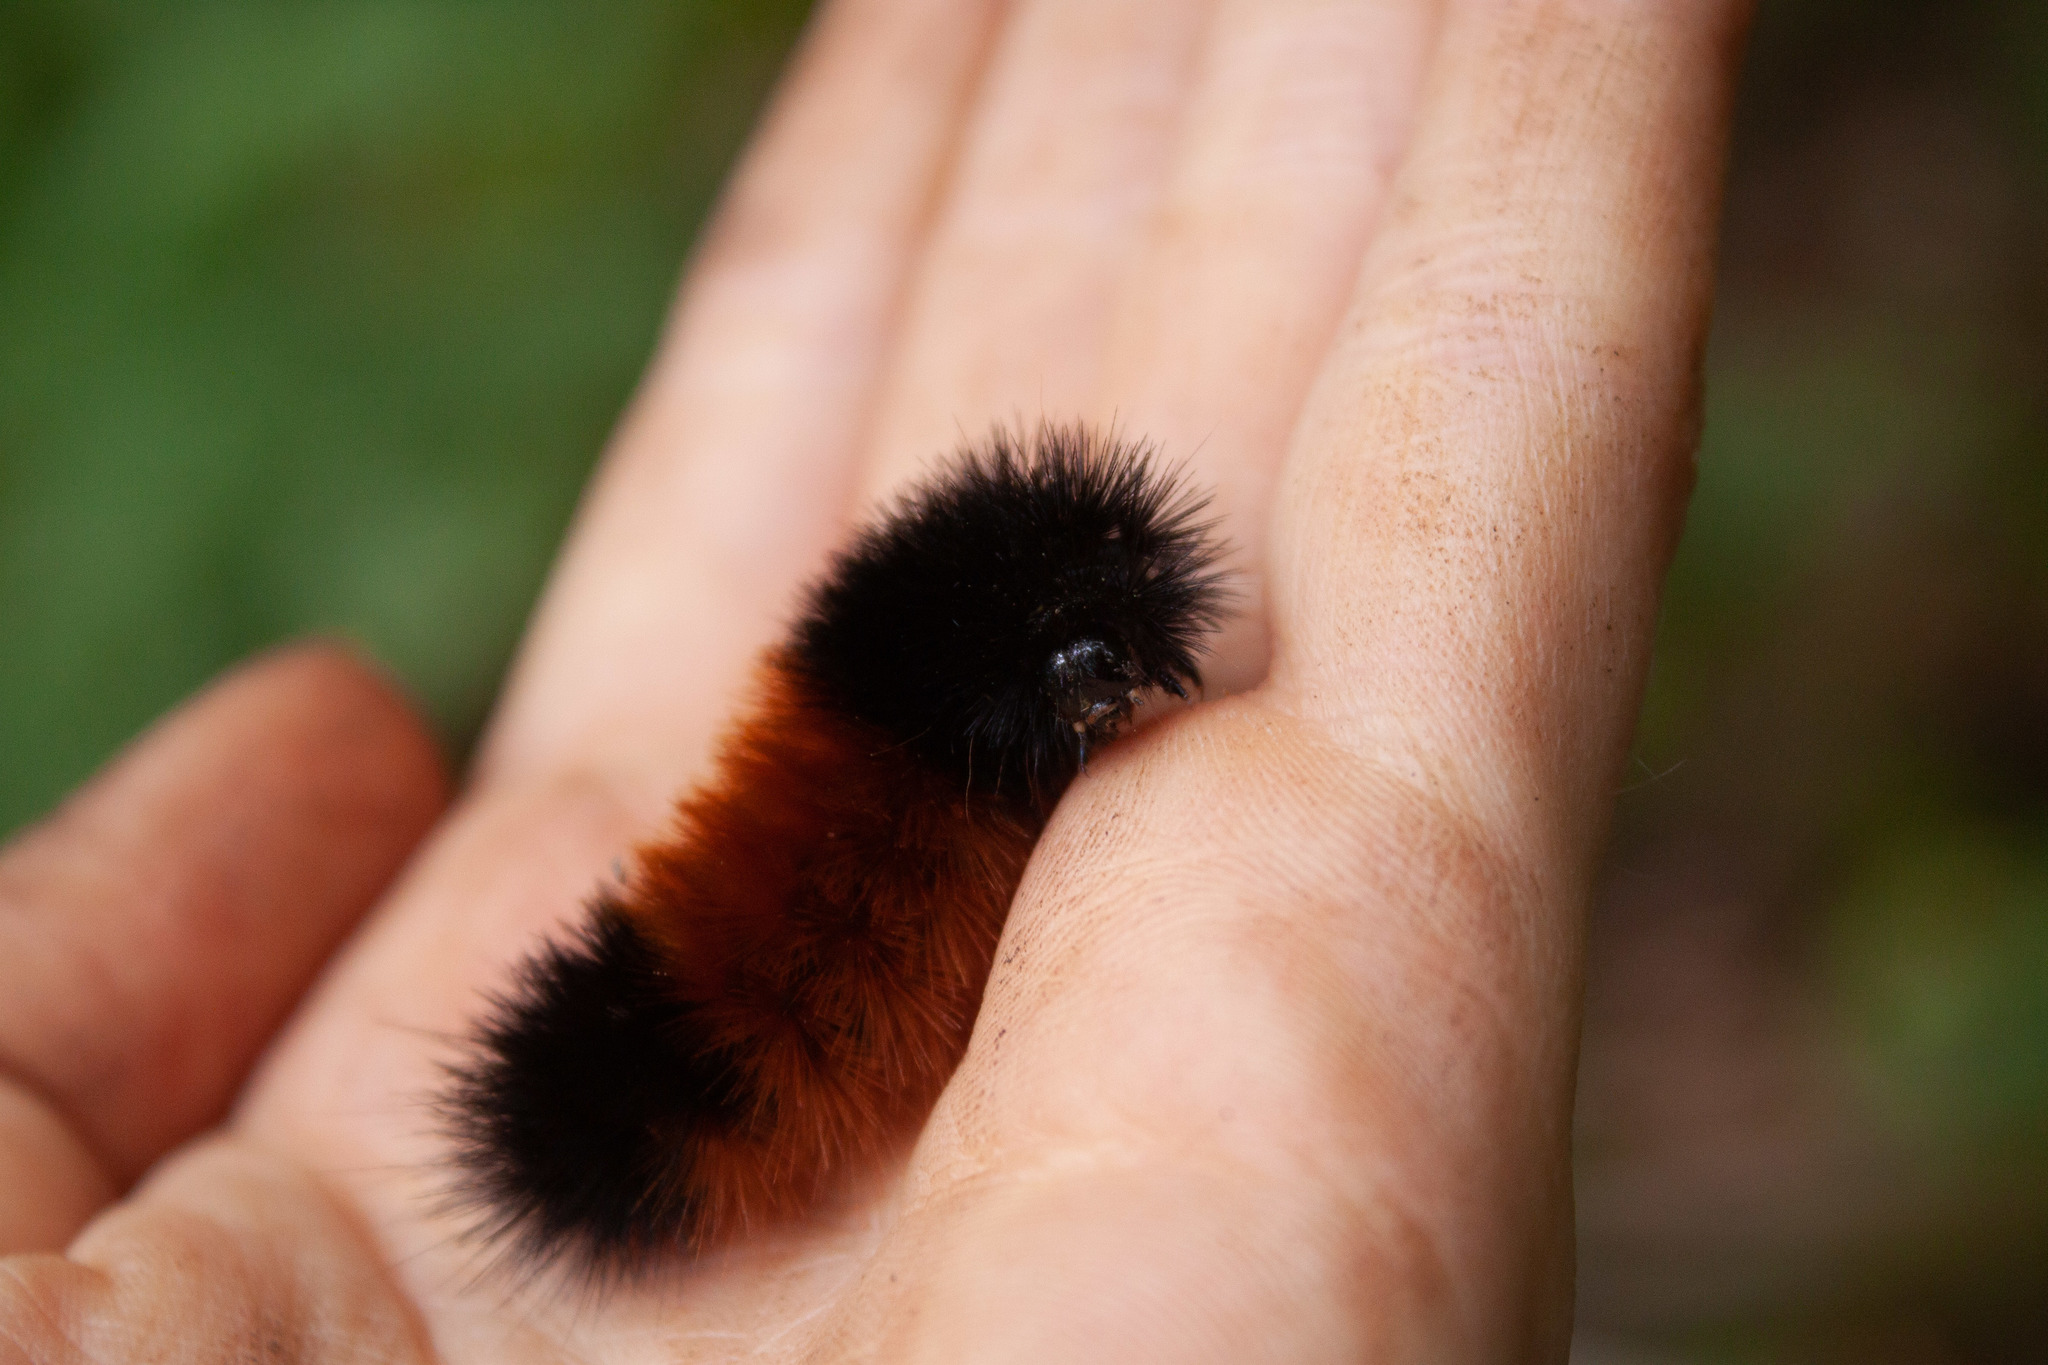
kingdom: Animalia
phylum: Arthropoda
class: Insecta
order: Lepidoptera
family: Erebidae
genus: Pyrrharctia
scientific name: Pyrrharctia isabella
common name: Isabella tiger moth
